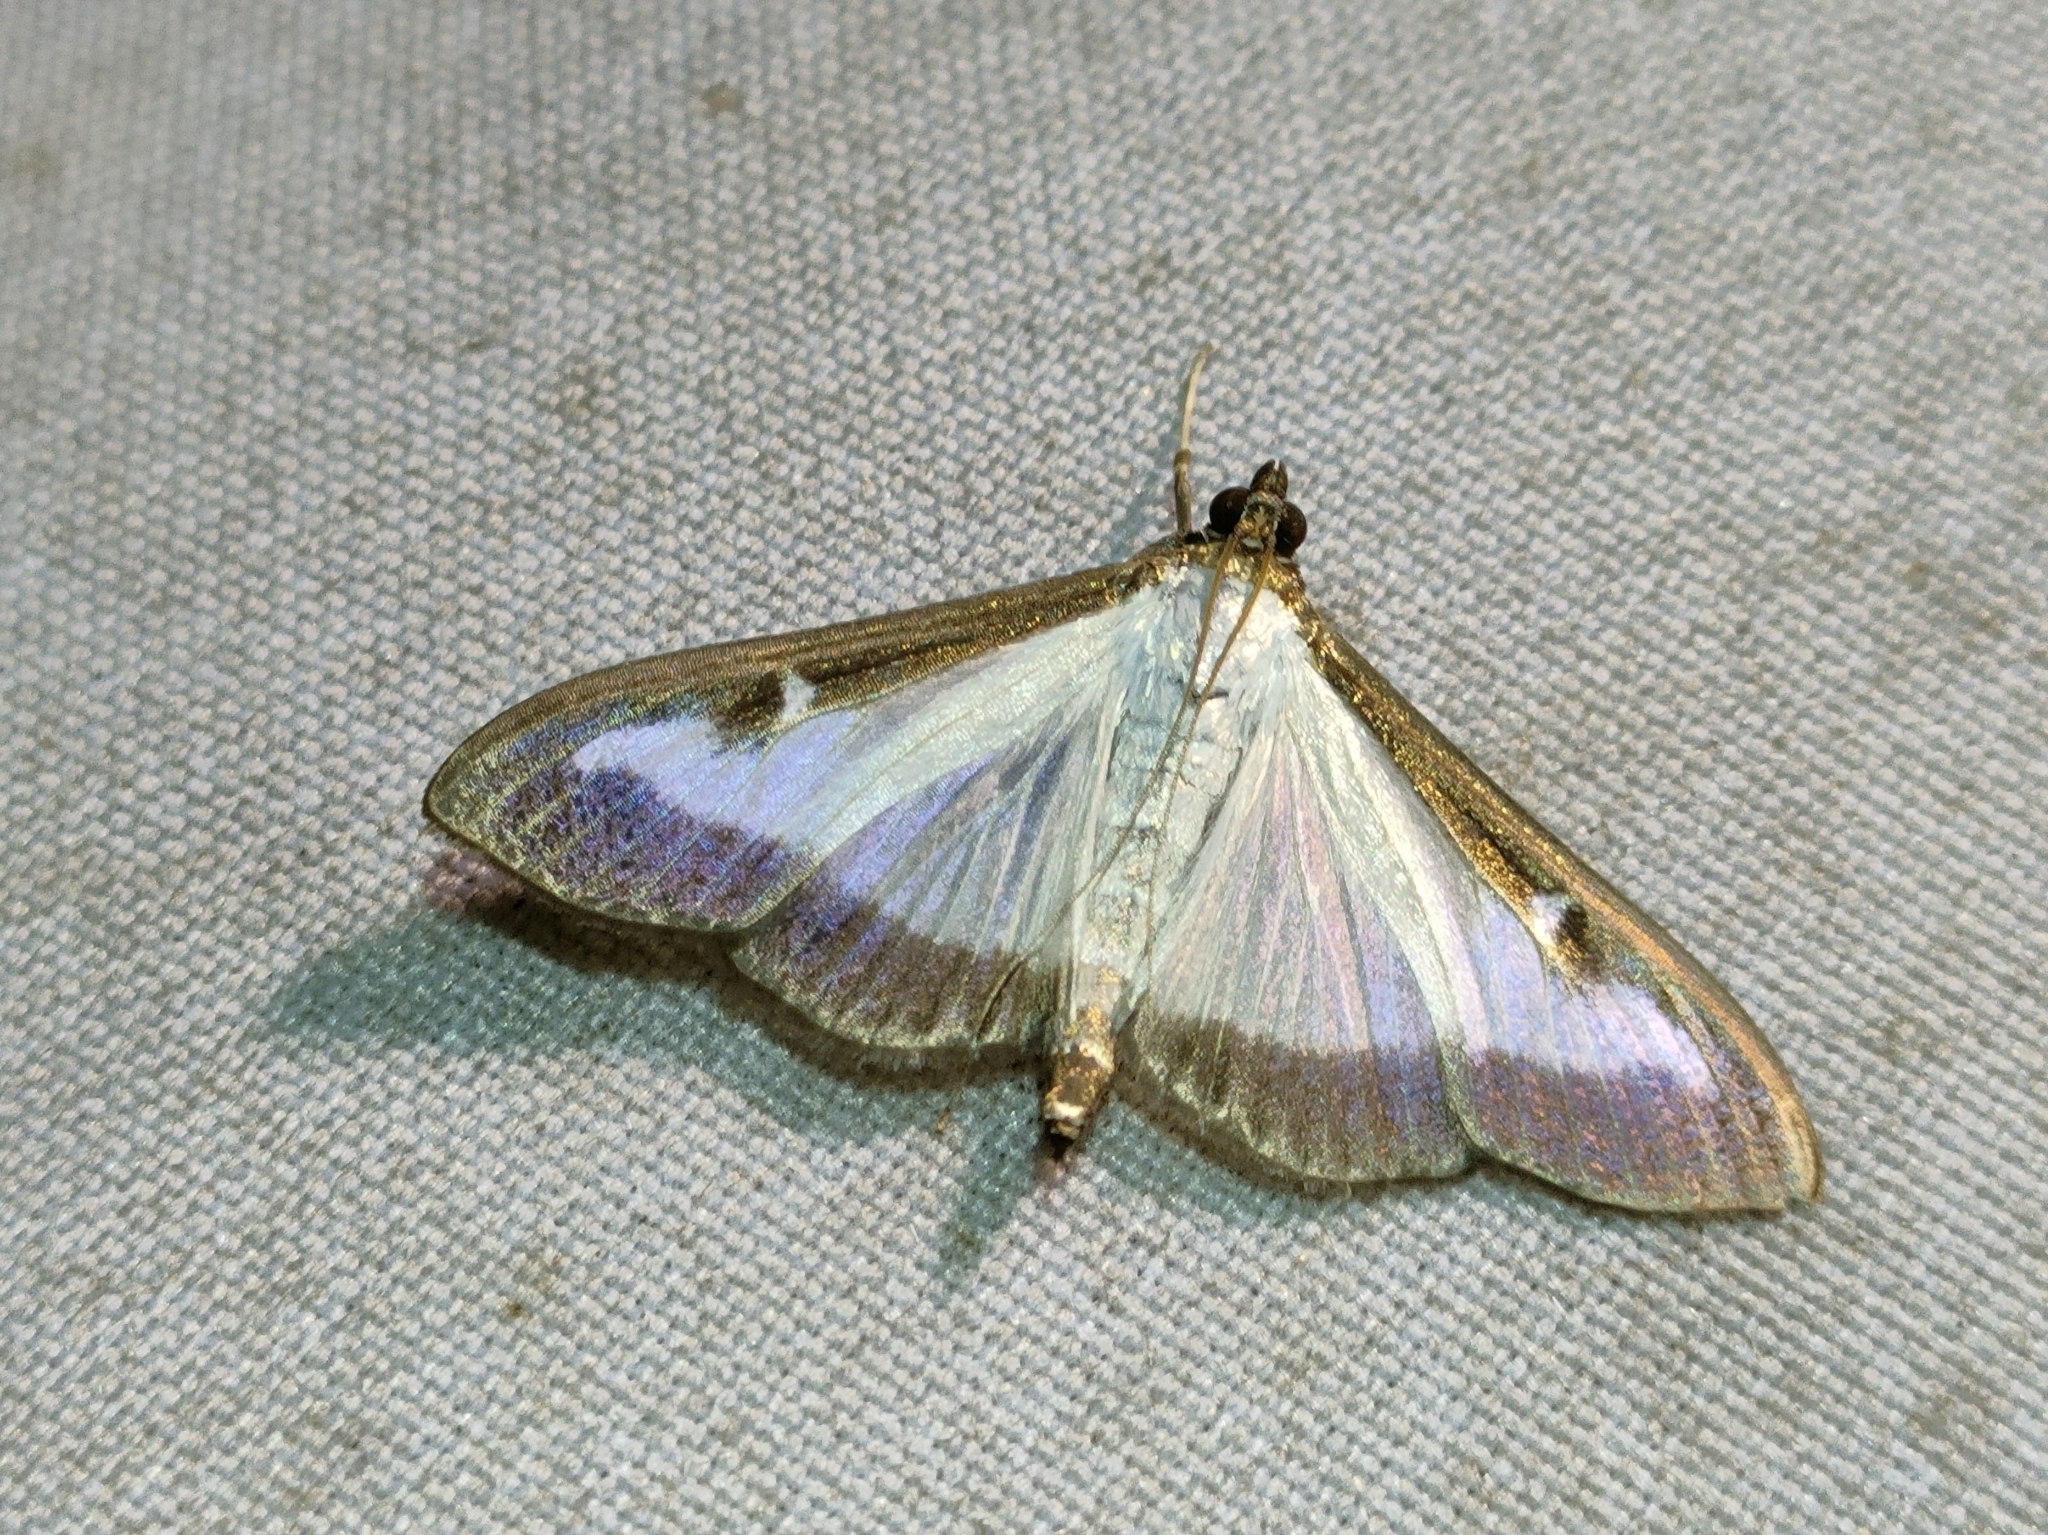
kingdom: Animalia
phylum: Arthropoda
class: Insecta
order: Lepidoptera
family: Crambidae
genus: Cydalima
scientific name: Cydalima perspectalis
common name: Box tree moth
